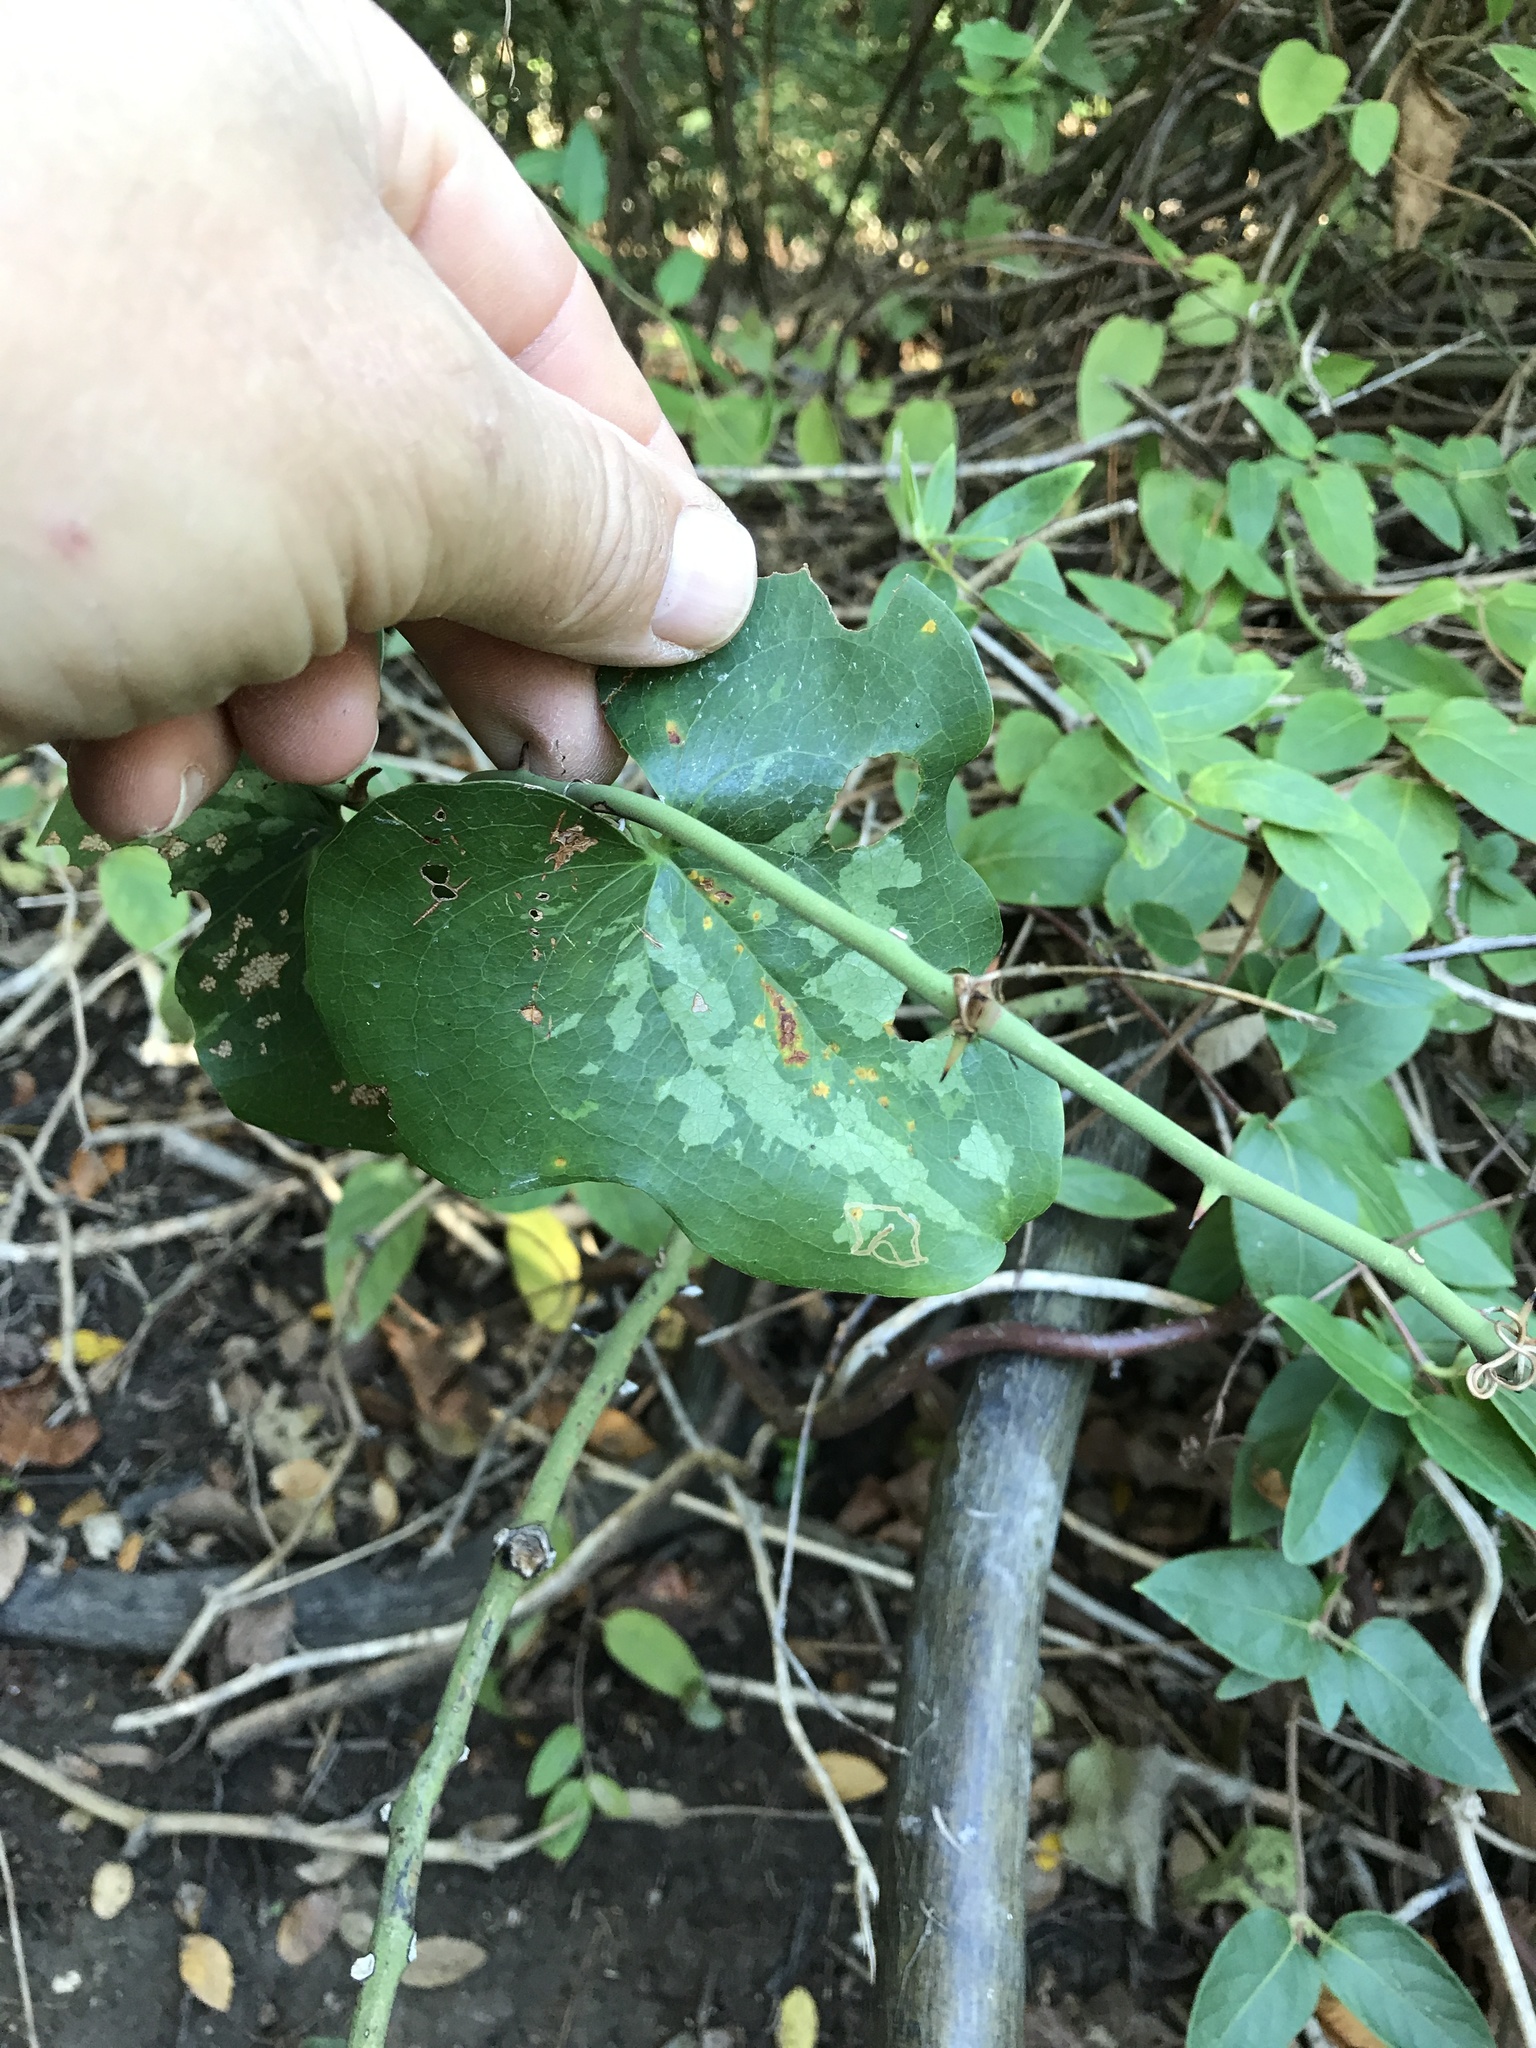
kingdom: Plantae
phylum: Tracheophyta
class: Liliopsida
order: Liliales
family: Smilacaceae
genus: Smilax
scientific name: Smilax bona-nox
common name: Catbrier
